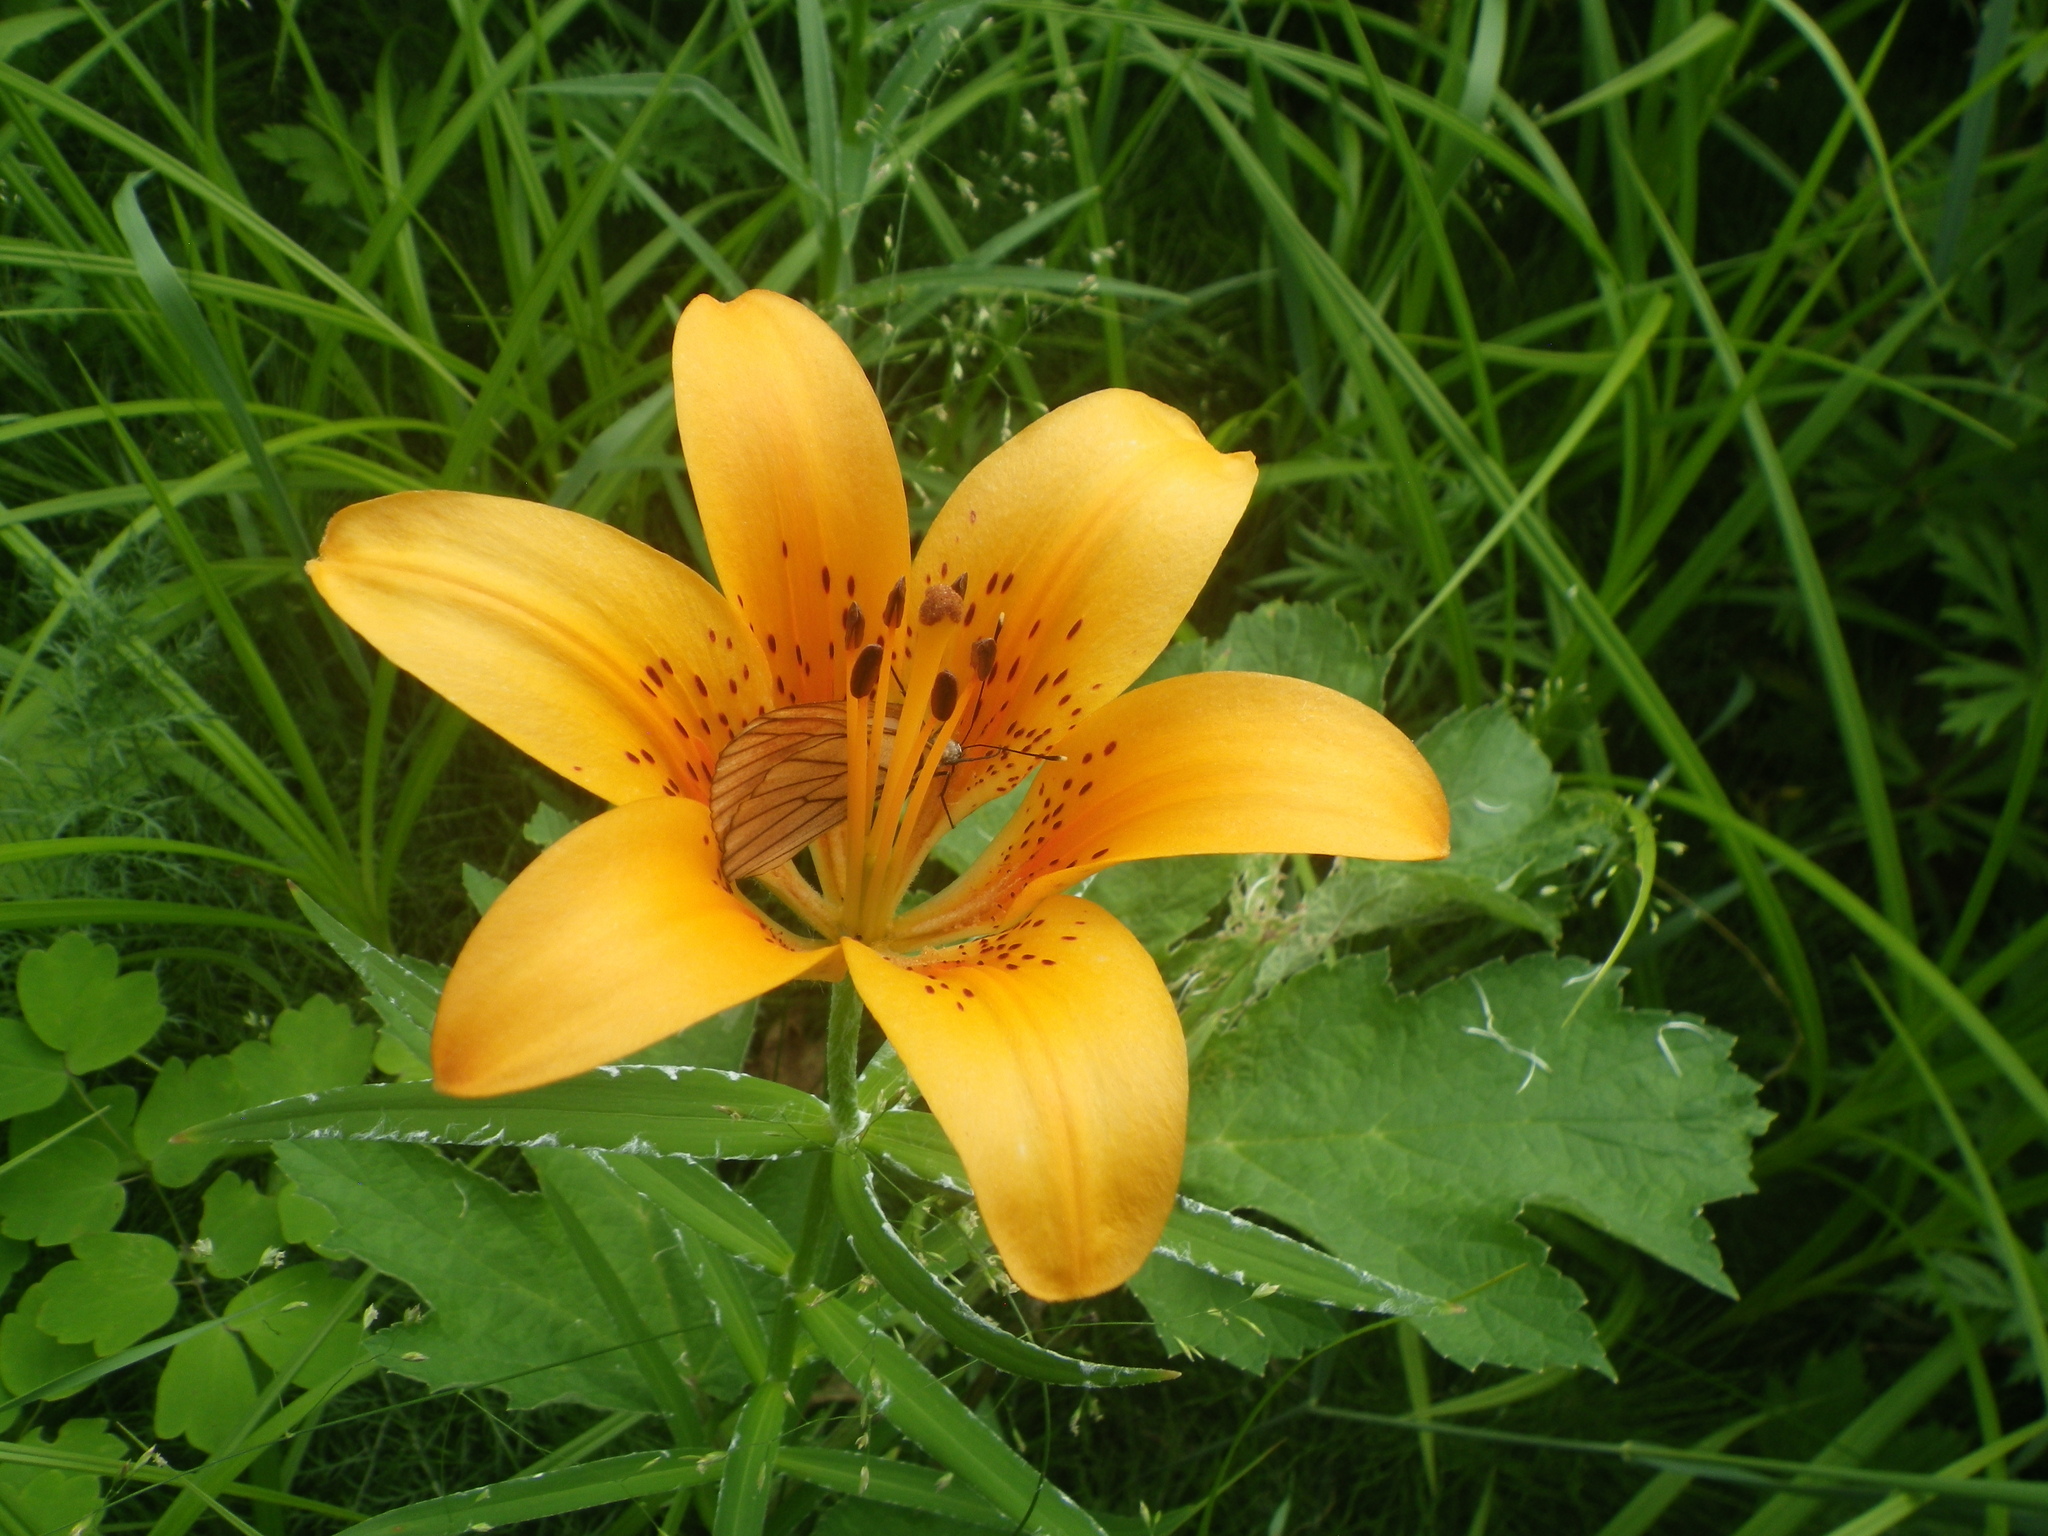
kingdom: Animalia
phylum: Arthropoda
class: Insecta
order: Lepidoptera
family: Pieridae
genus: Aporia
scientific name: Aporia crataegi
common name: Black-veined white
